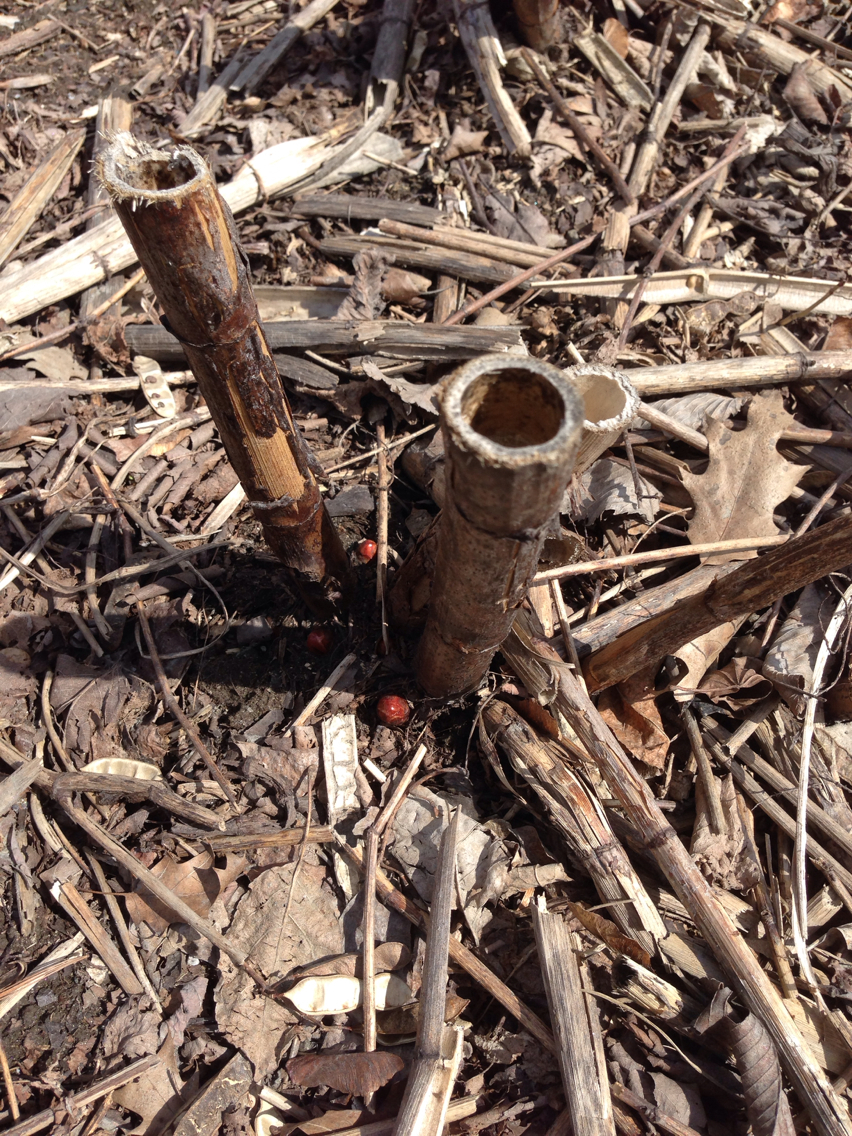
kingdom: Plantae
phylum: Tracheophyta
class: Magnoliopsida
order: Caryophyllales
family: Polygonaceae
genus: Reynoutria
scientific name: Reynoutria japonica
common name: Japanese knotweed
